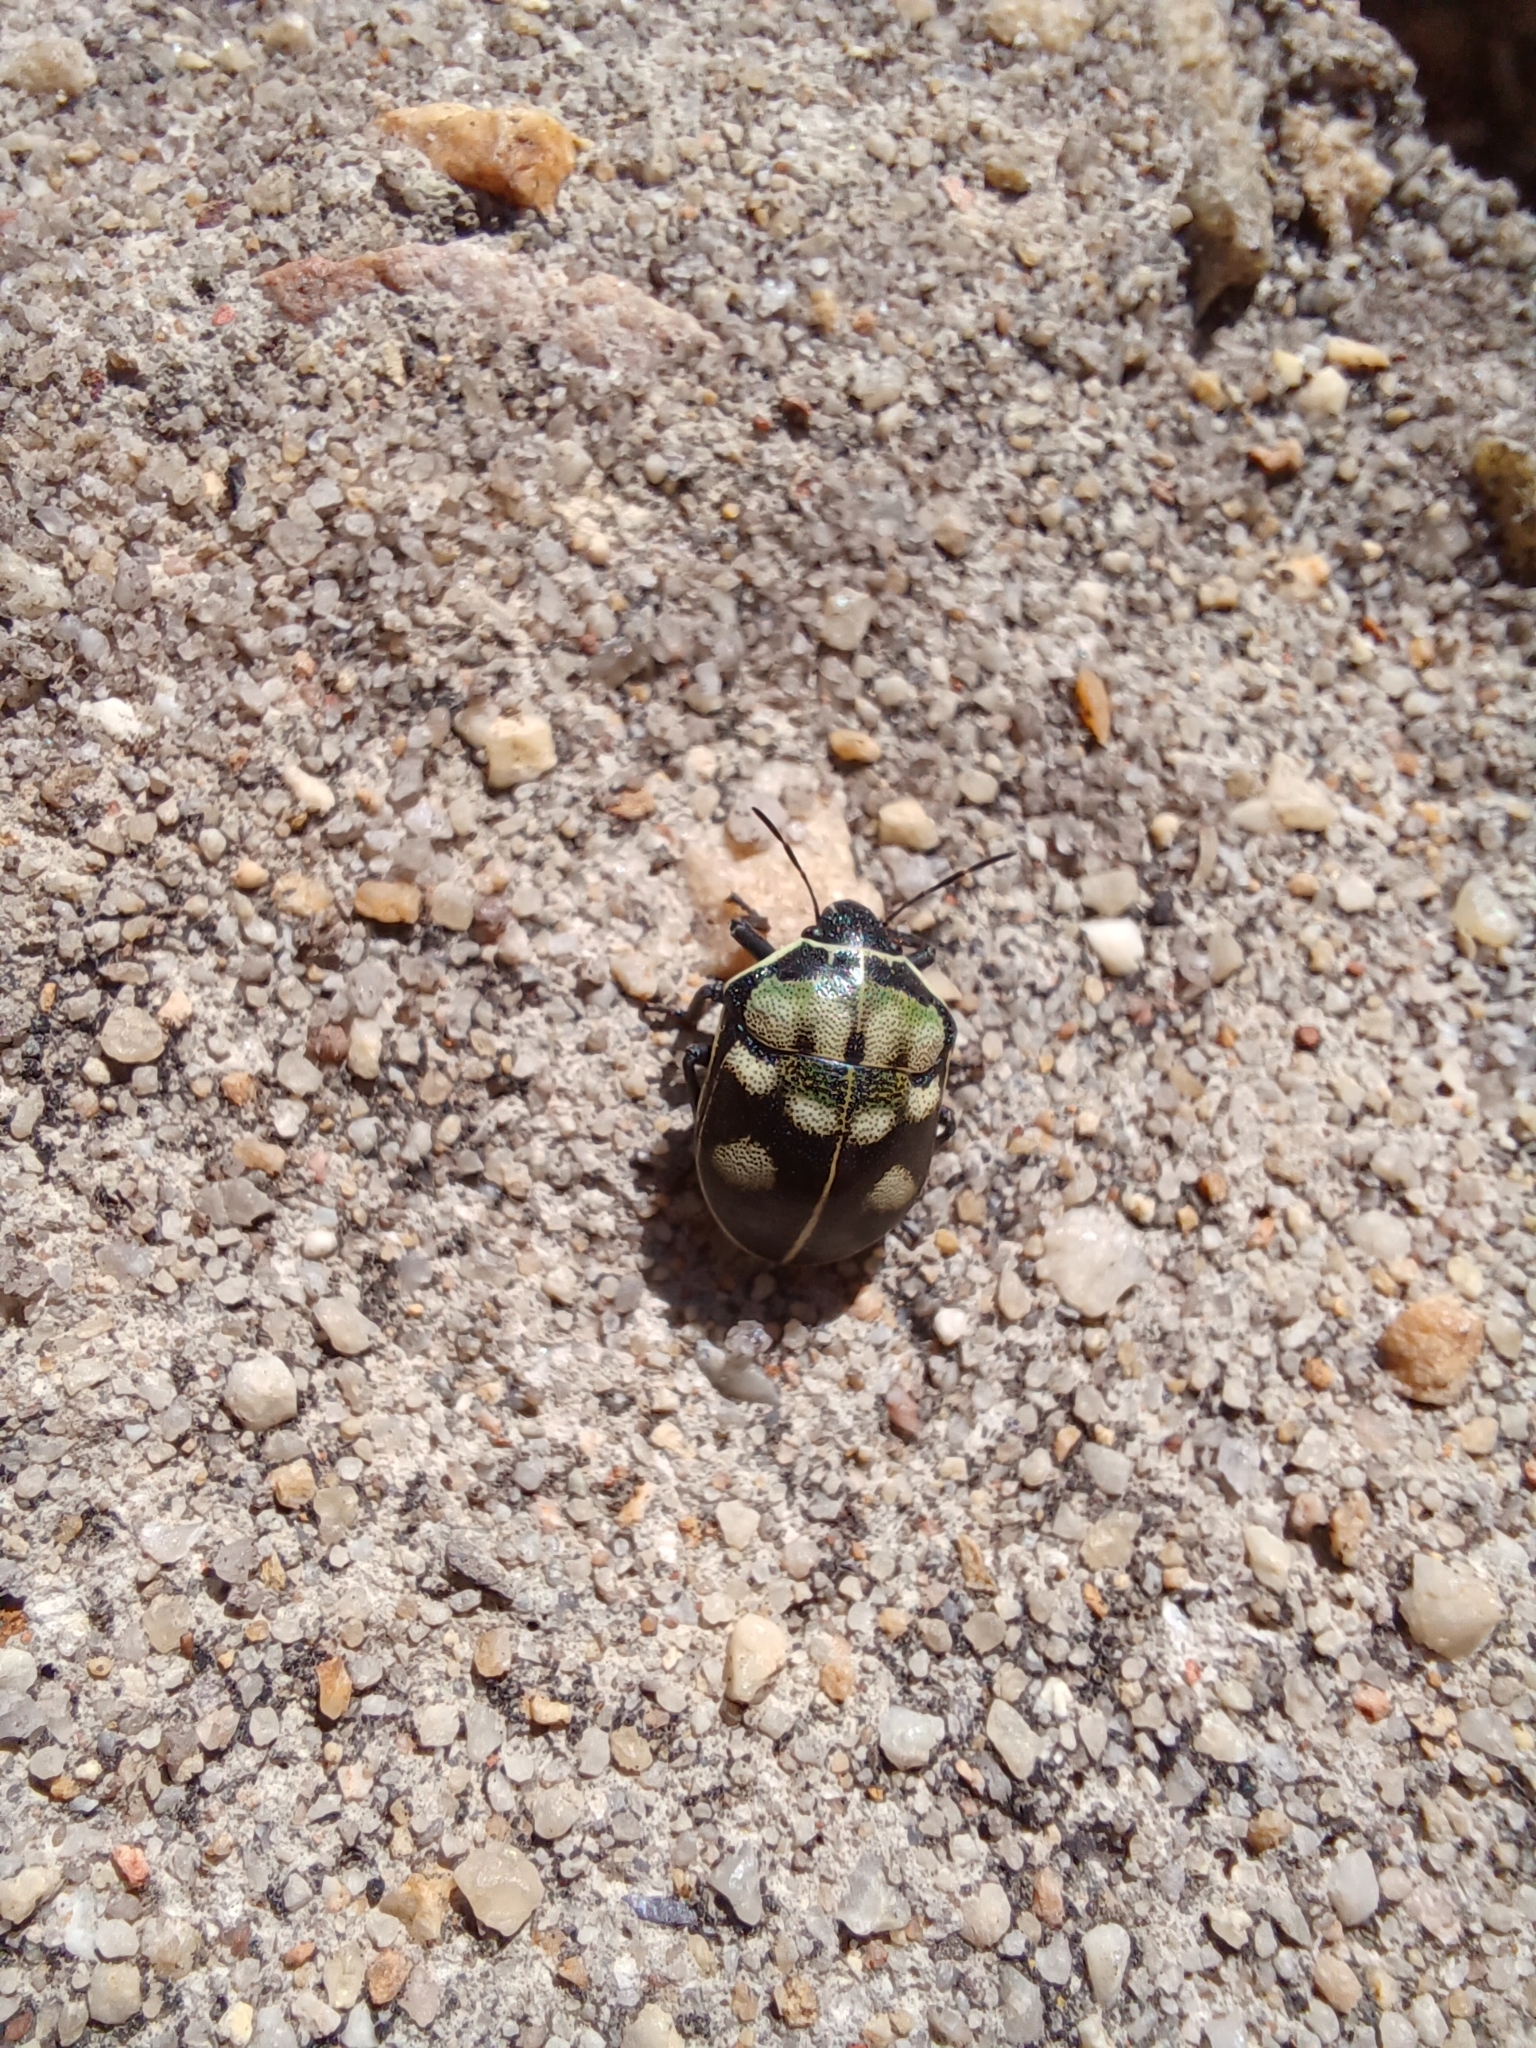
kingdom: Animalia
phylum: Arthropoda
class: Insecta
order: Hemiptera
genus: Deroplax
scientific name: Deroplax silphoides
